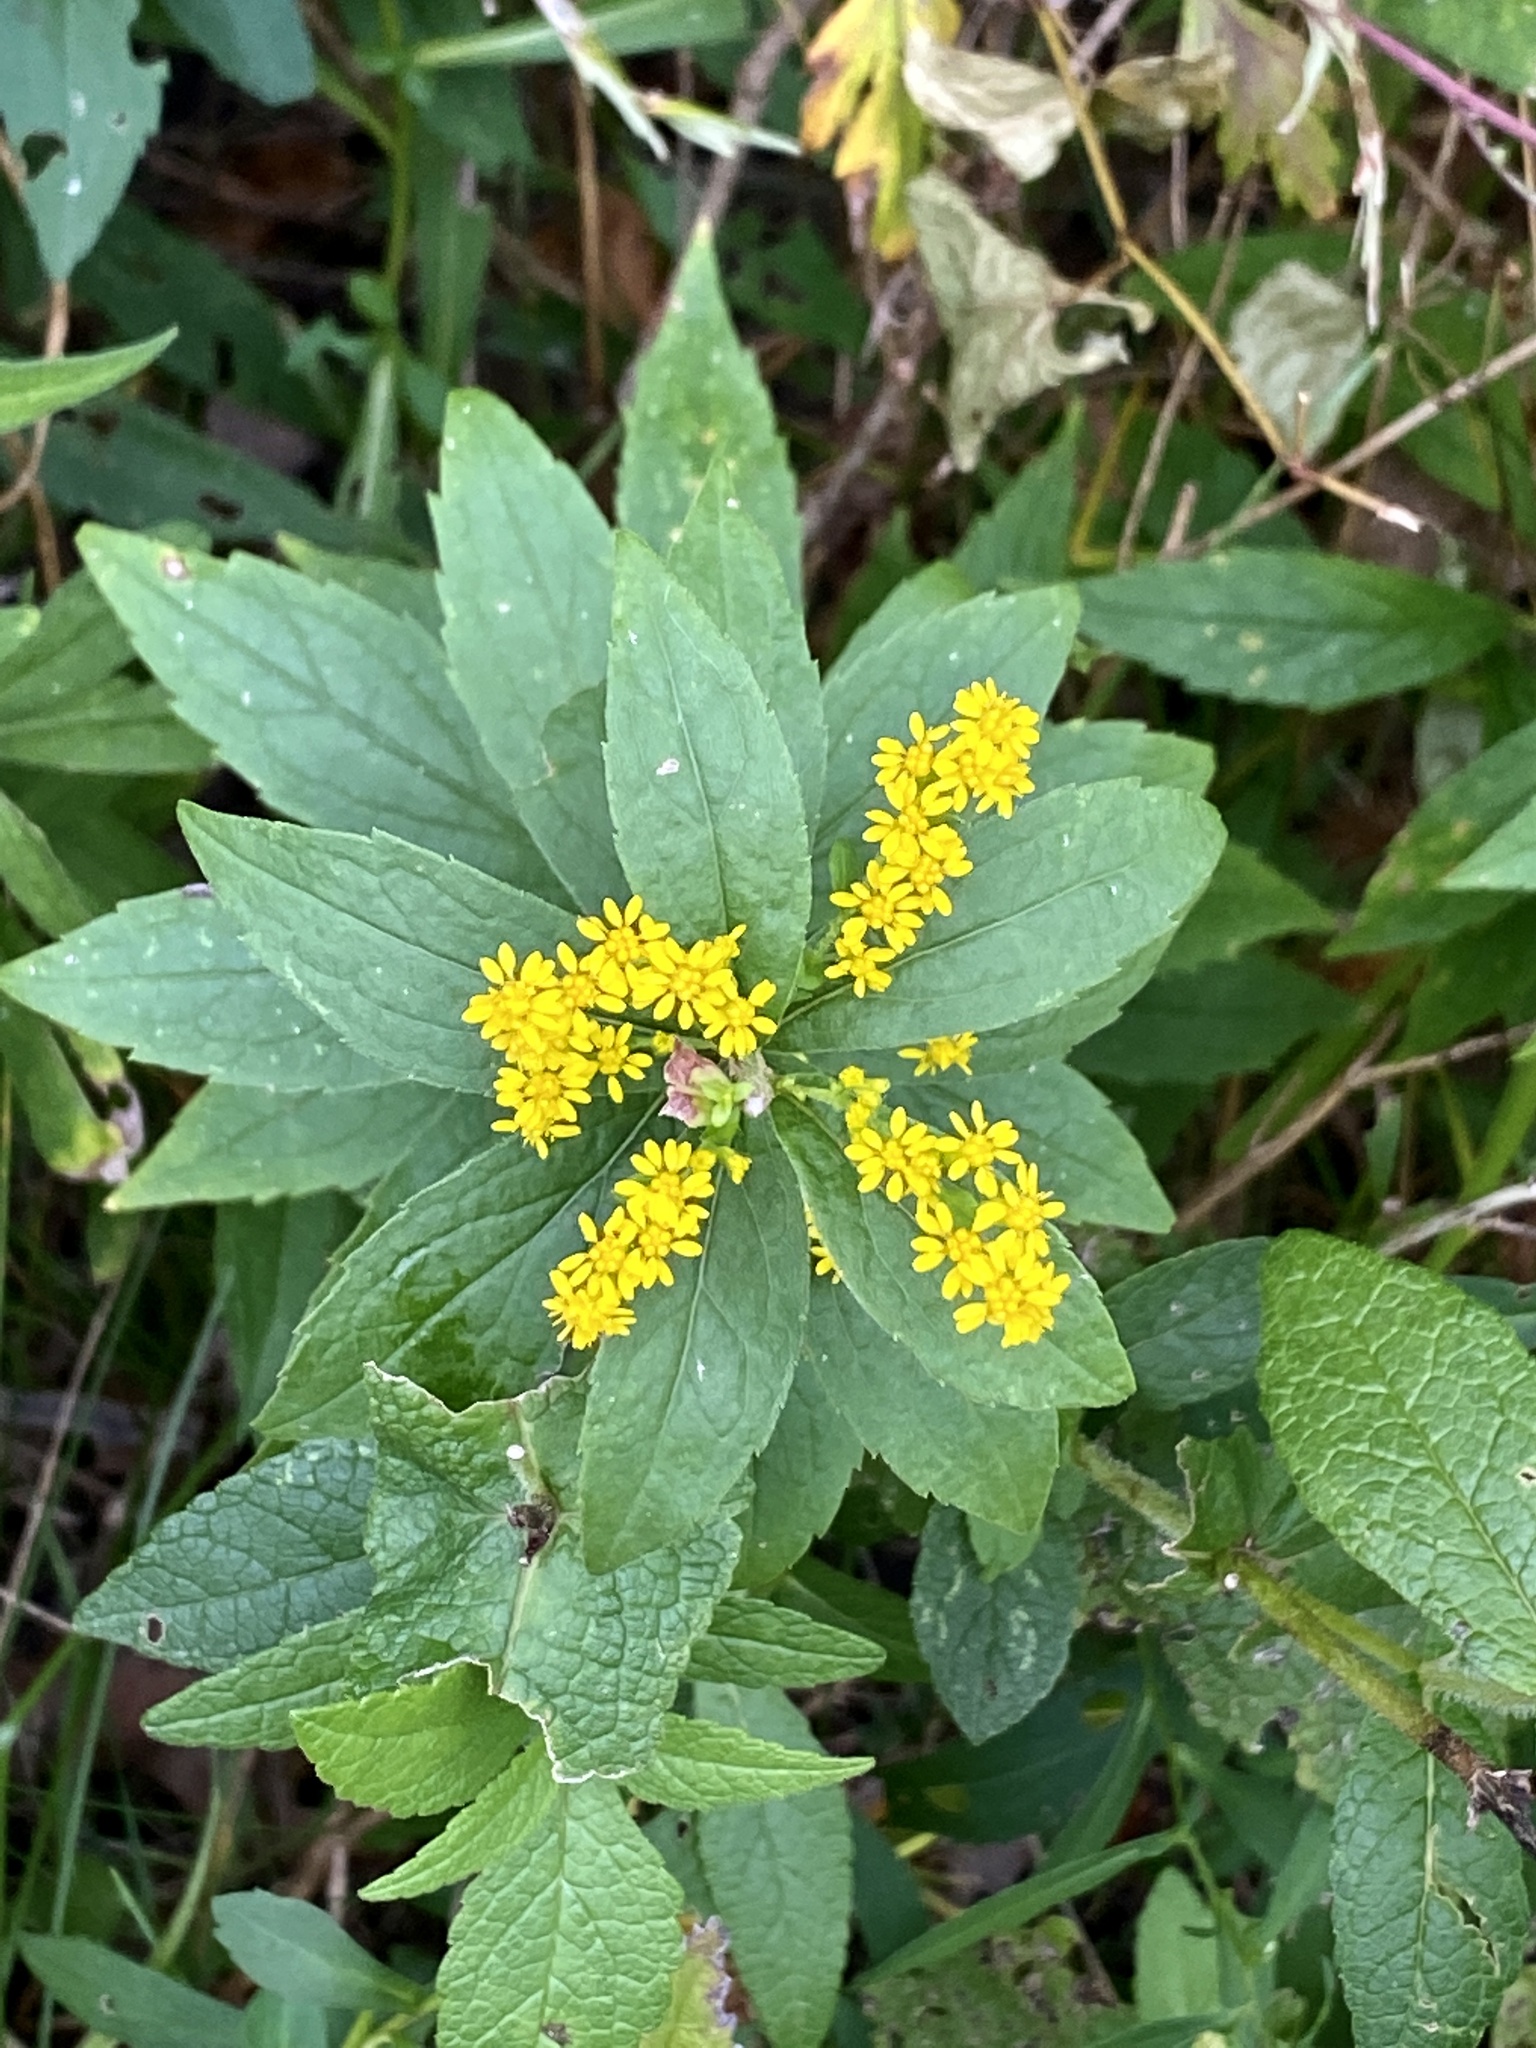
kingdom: Plantae
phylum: Tracheophyta
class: Magnoliopsida
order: Asterales
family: Asteraceae
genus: Solidago
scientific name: Solidago rugosa
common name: Rough-stemmed goldenrod
